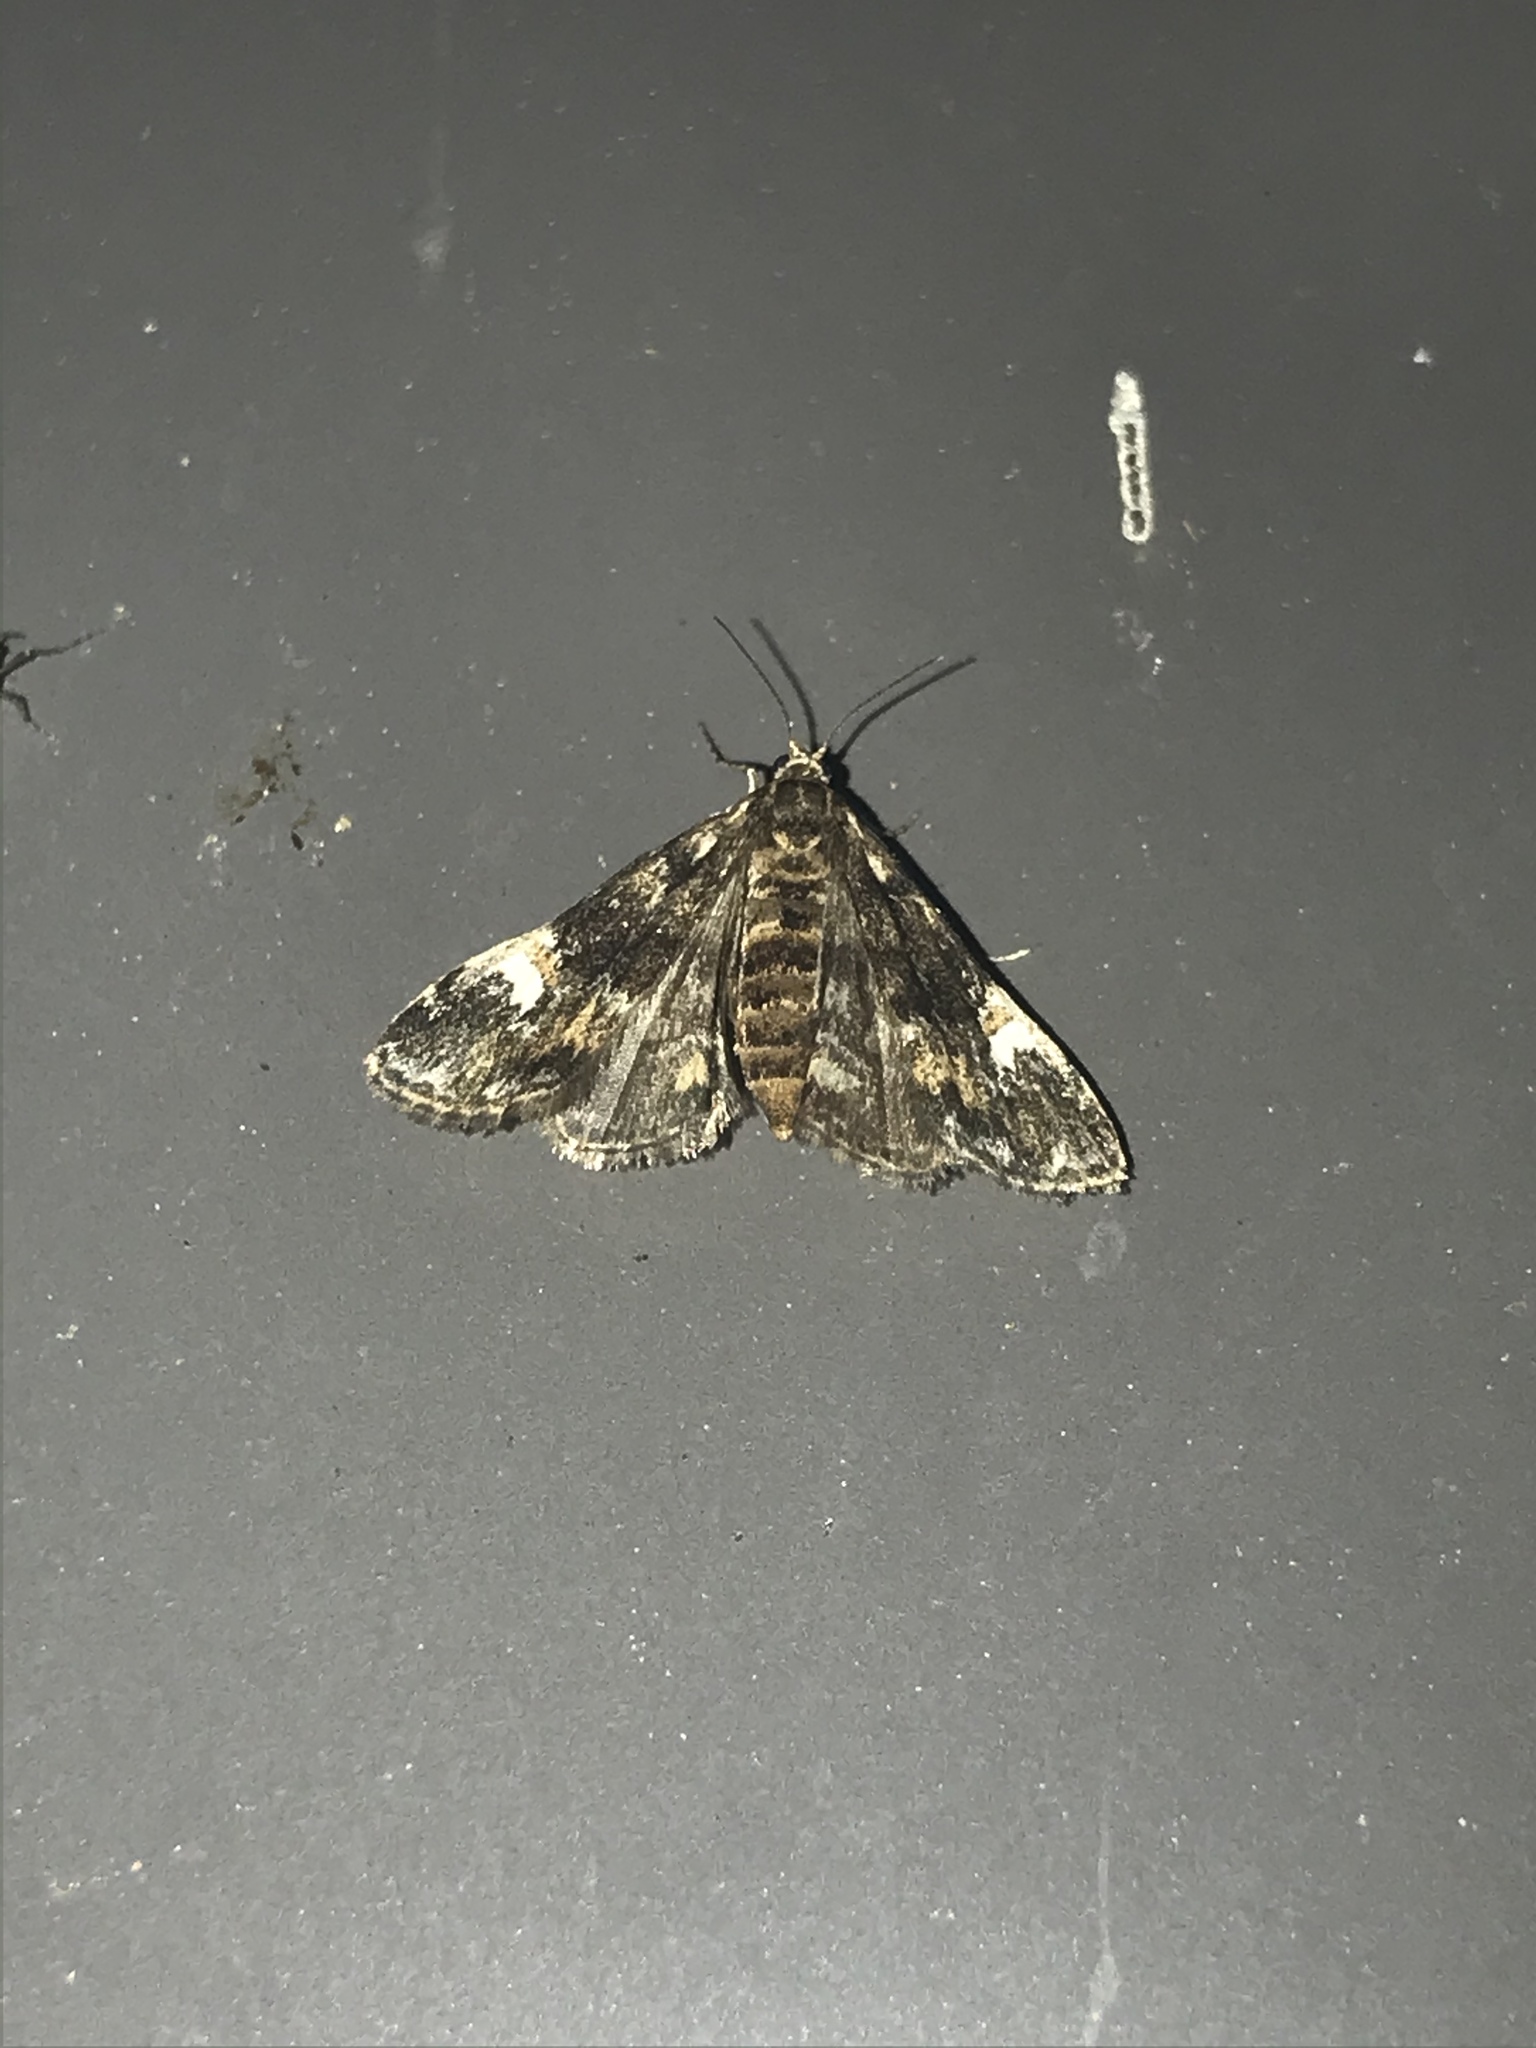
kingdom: Animalia
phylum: Arthropoda
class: Insecta
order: Lepidoptera
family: Crambidae
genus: Elophila
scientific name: Elophila obliteralis
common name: Waterlily leafcutter moth
